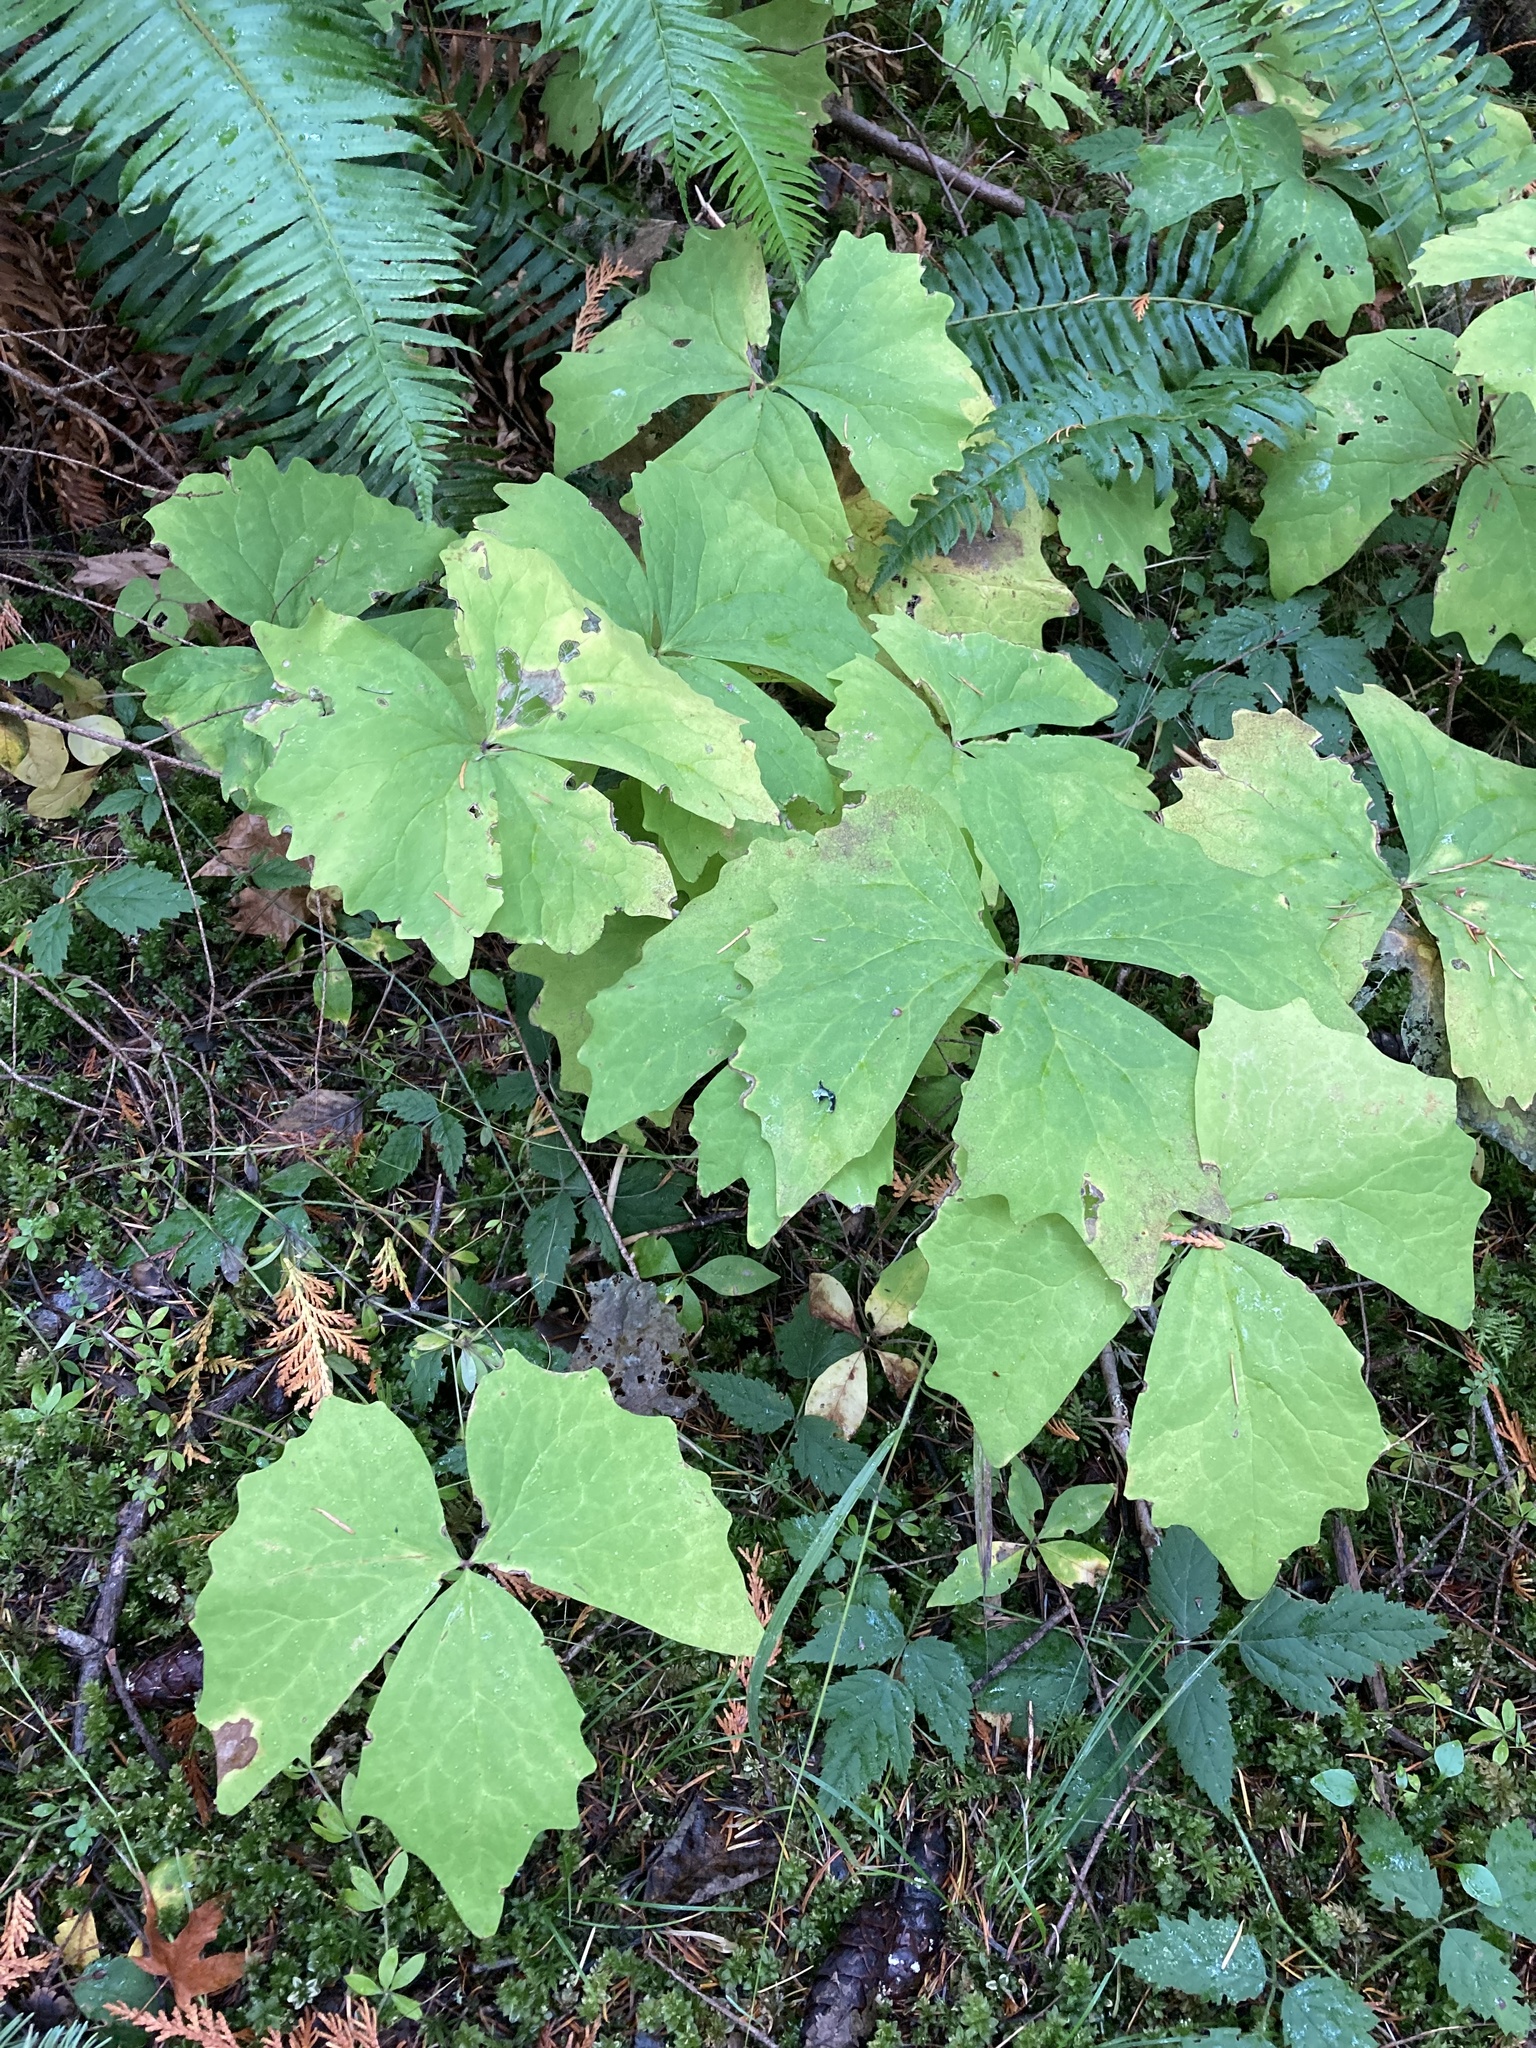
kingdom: Plantae
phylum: Tracheophyta
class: Magnoliopsida
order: Ranunculales
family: Berberidaceae
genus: Achlys
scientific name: Achlys triphylla
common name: Vanilla-leaf
